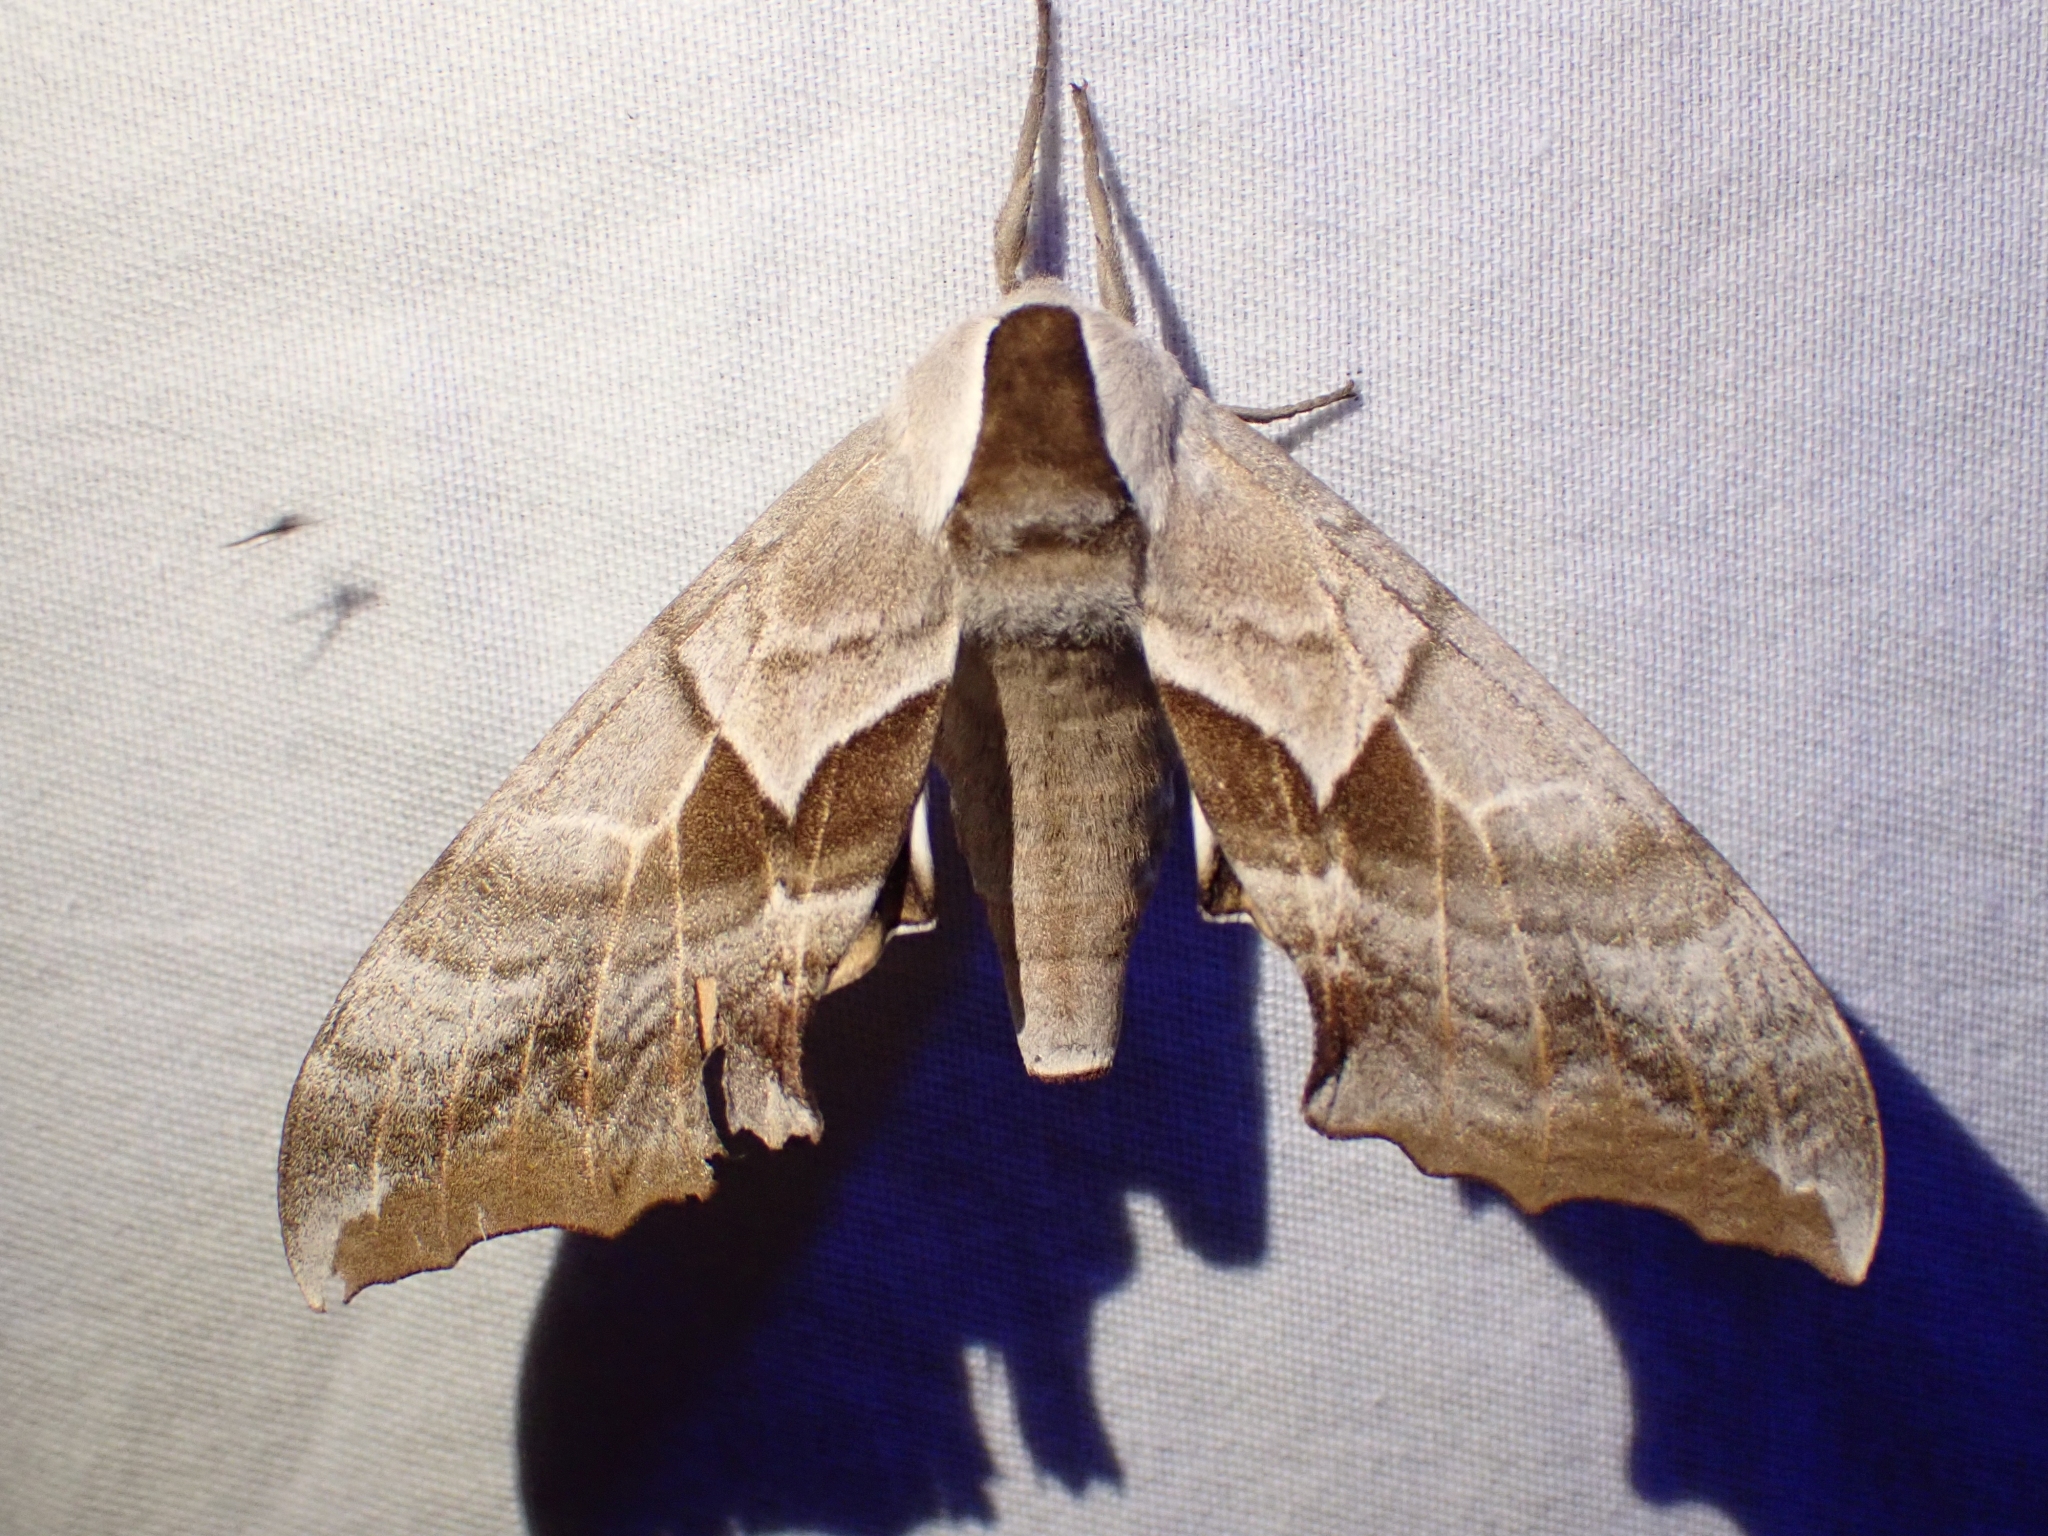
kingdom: Animalia
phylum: Arthropoda
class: Insecta
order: Lepidoptera
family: Sphingidae
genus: Smerinthus
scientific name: Smerinthus cerisyi
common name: Cerisy's sphinx moth
